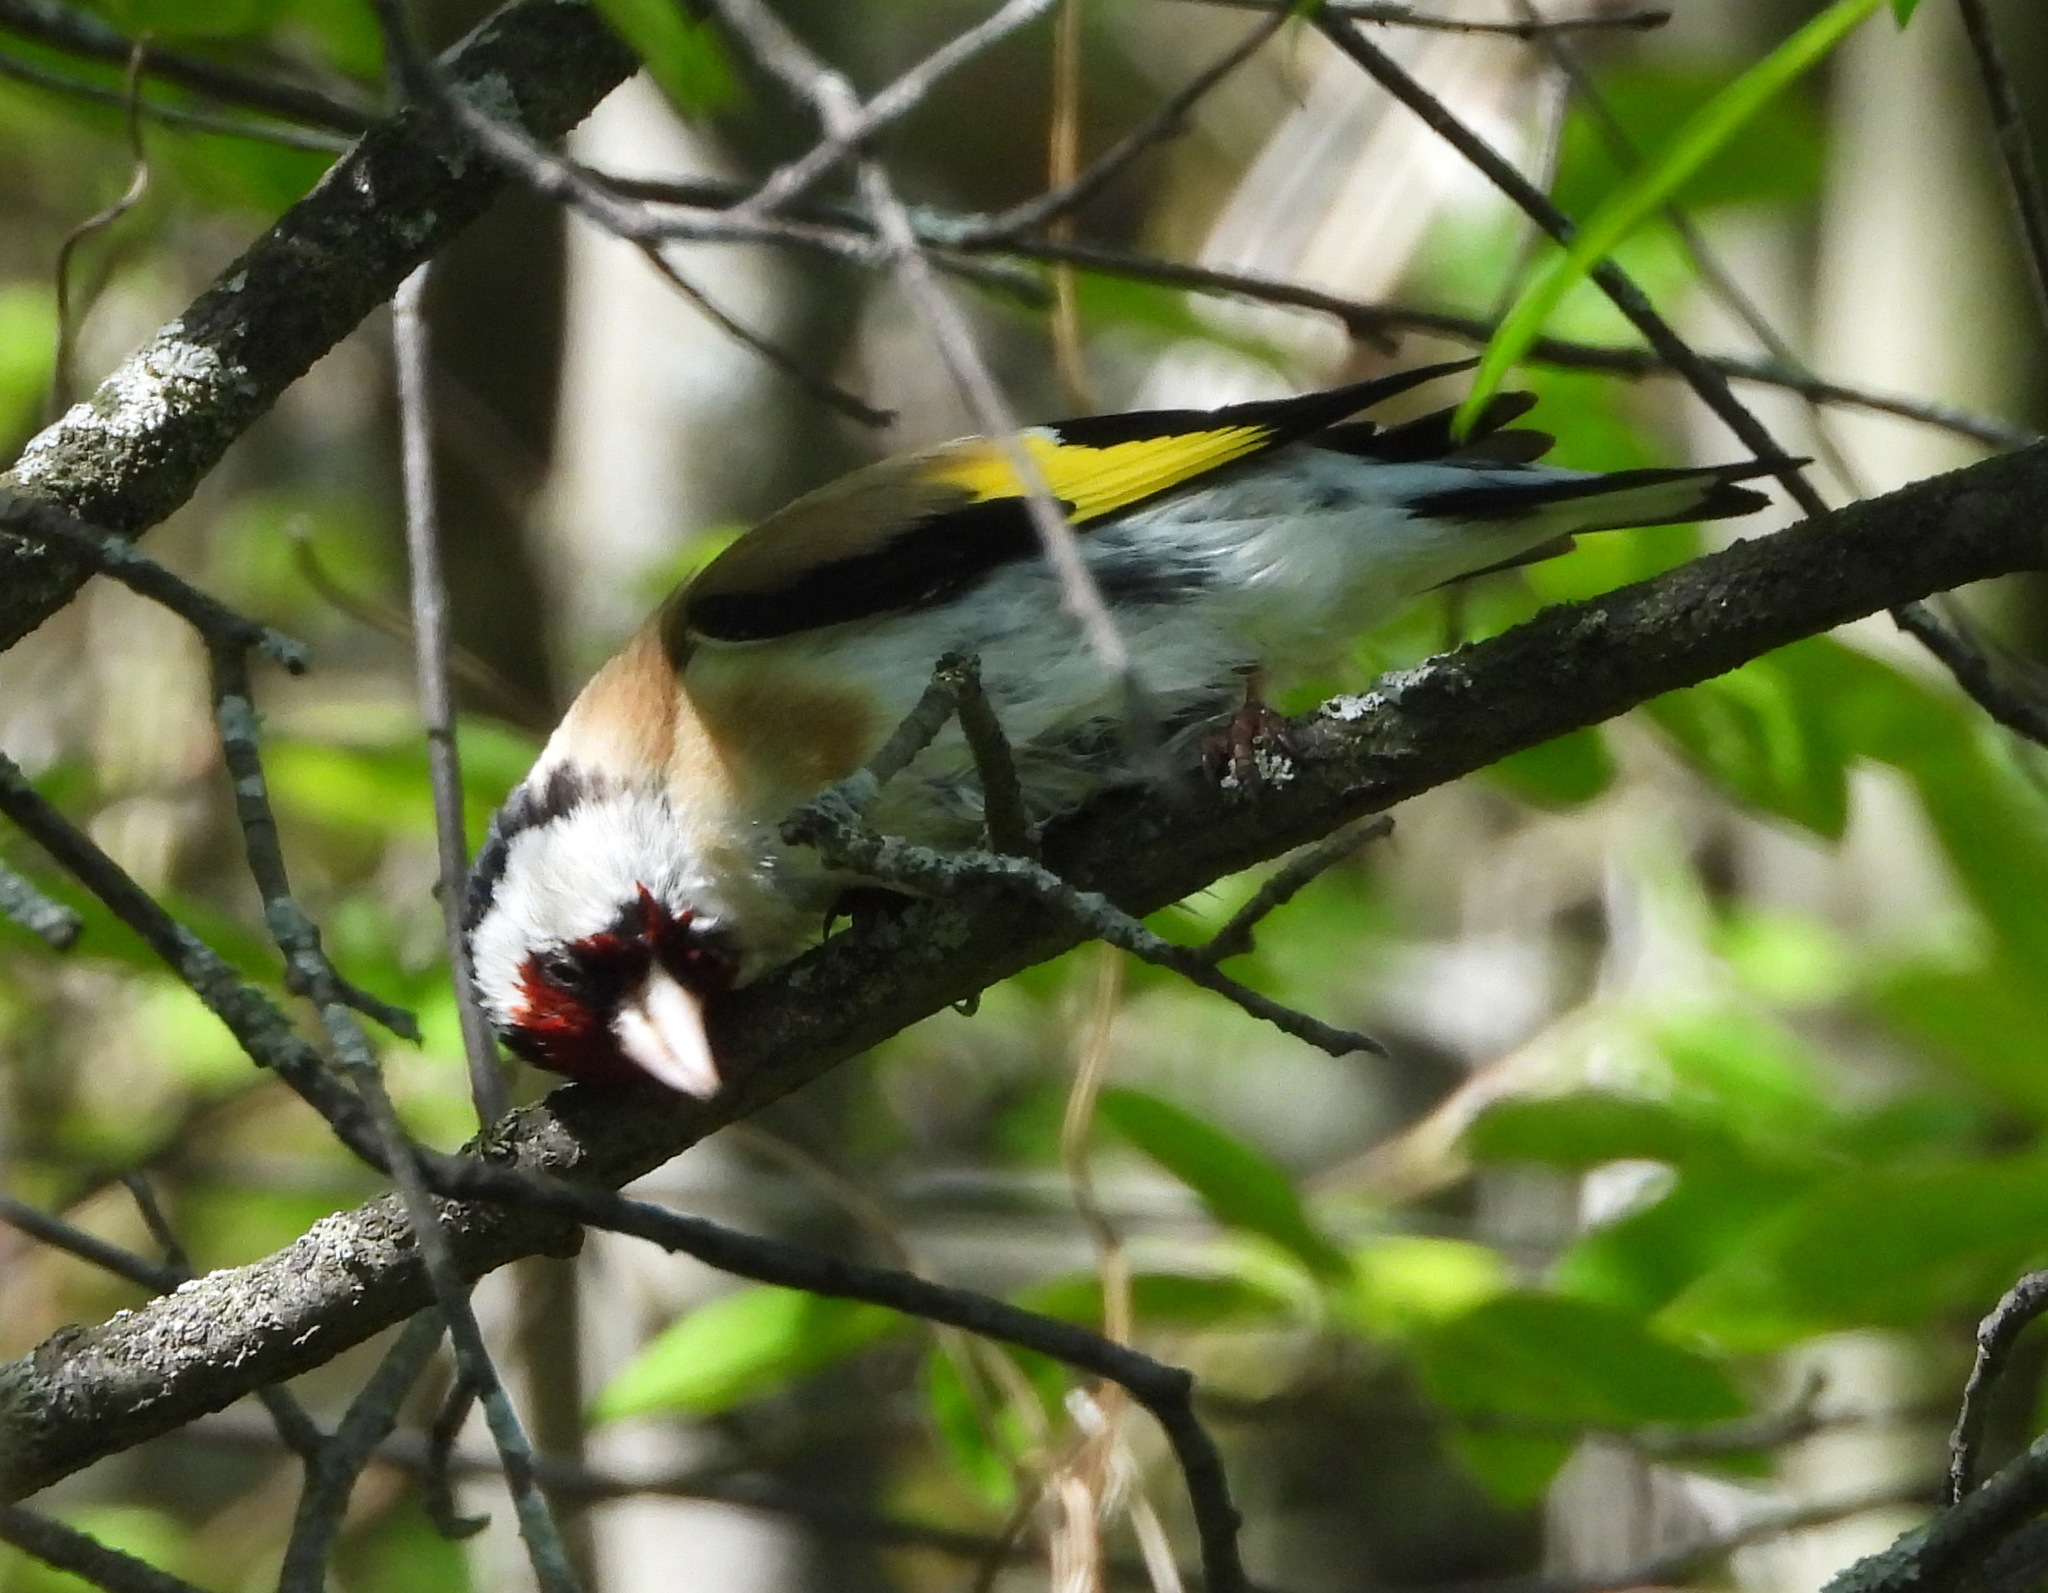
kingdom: Animalia
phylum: Chordata
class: Aves
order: Passeriformes
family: Fringillidae
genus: Carduelis
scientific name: Carduelis carduelis
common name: European goldfinch
